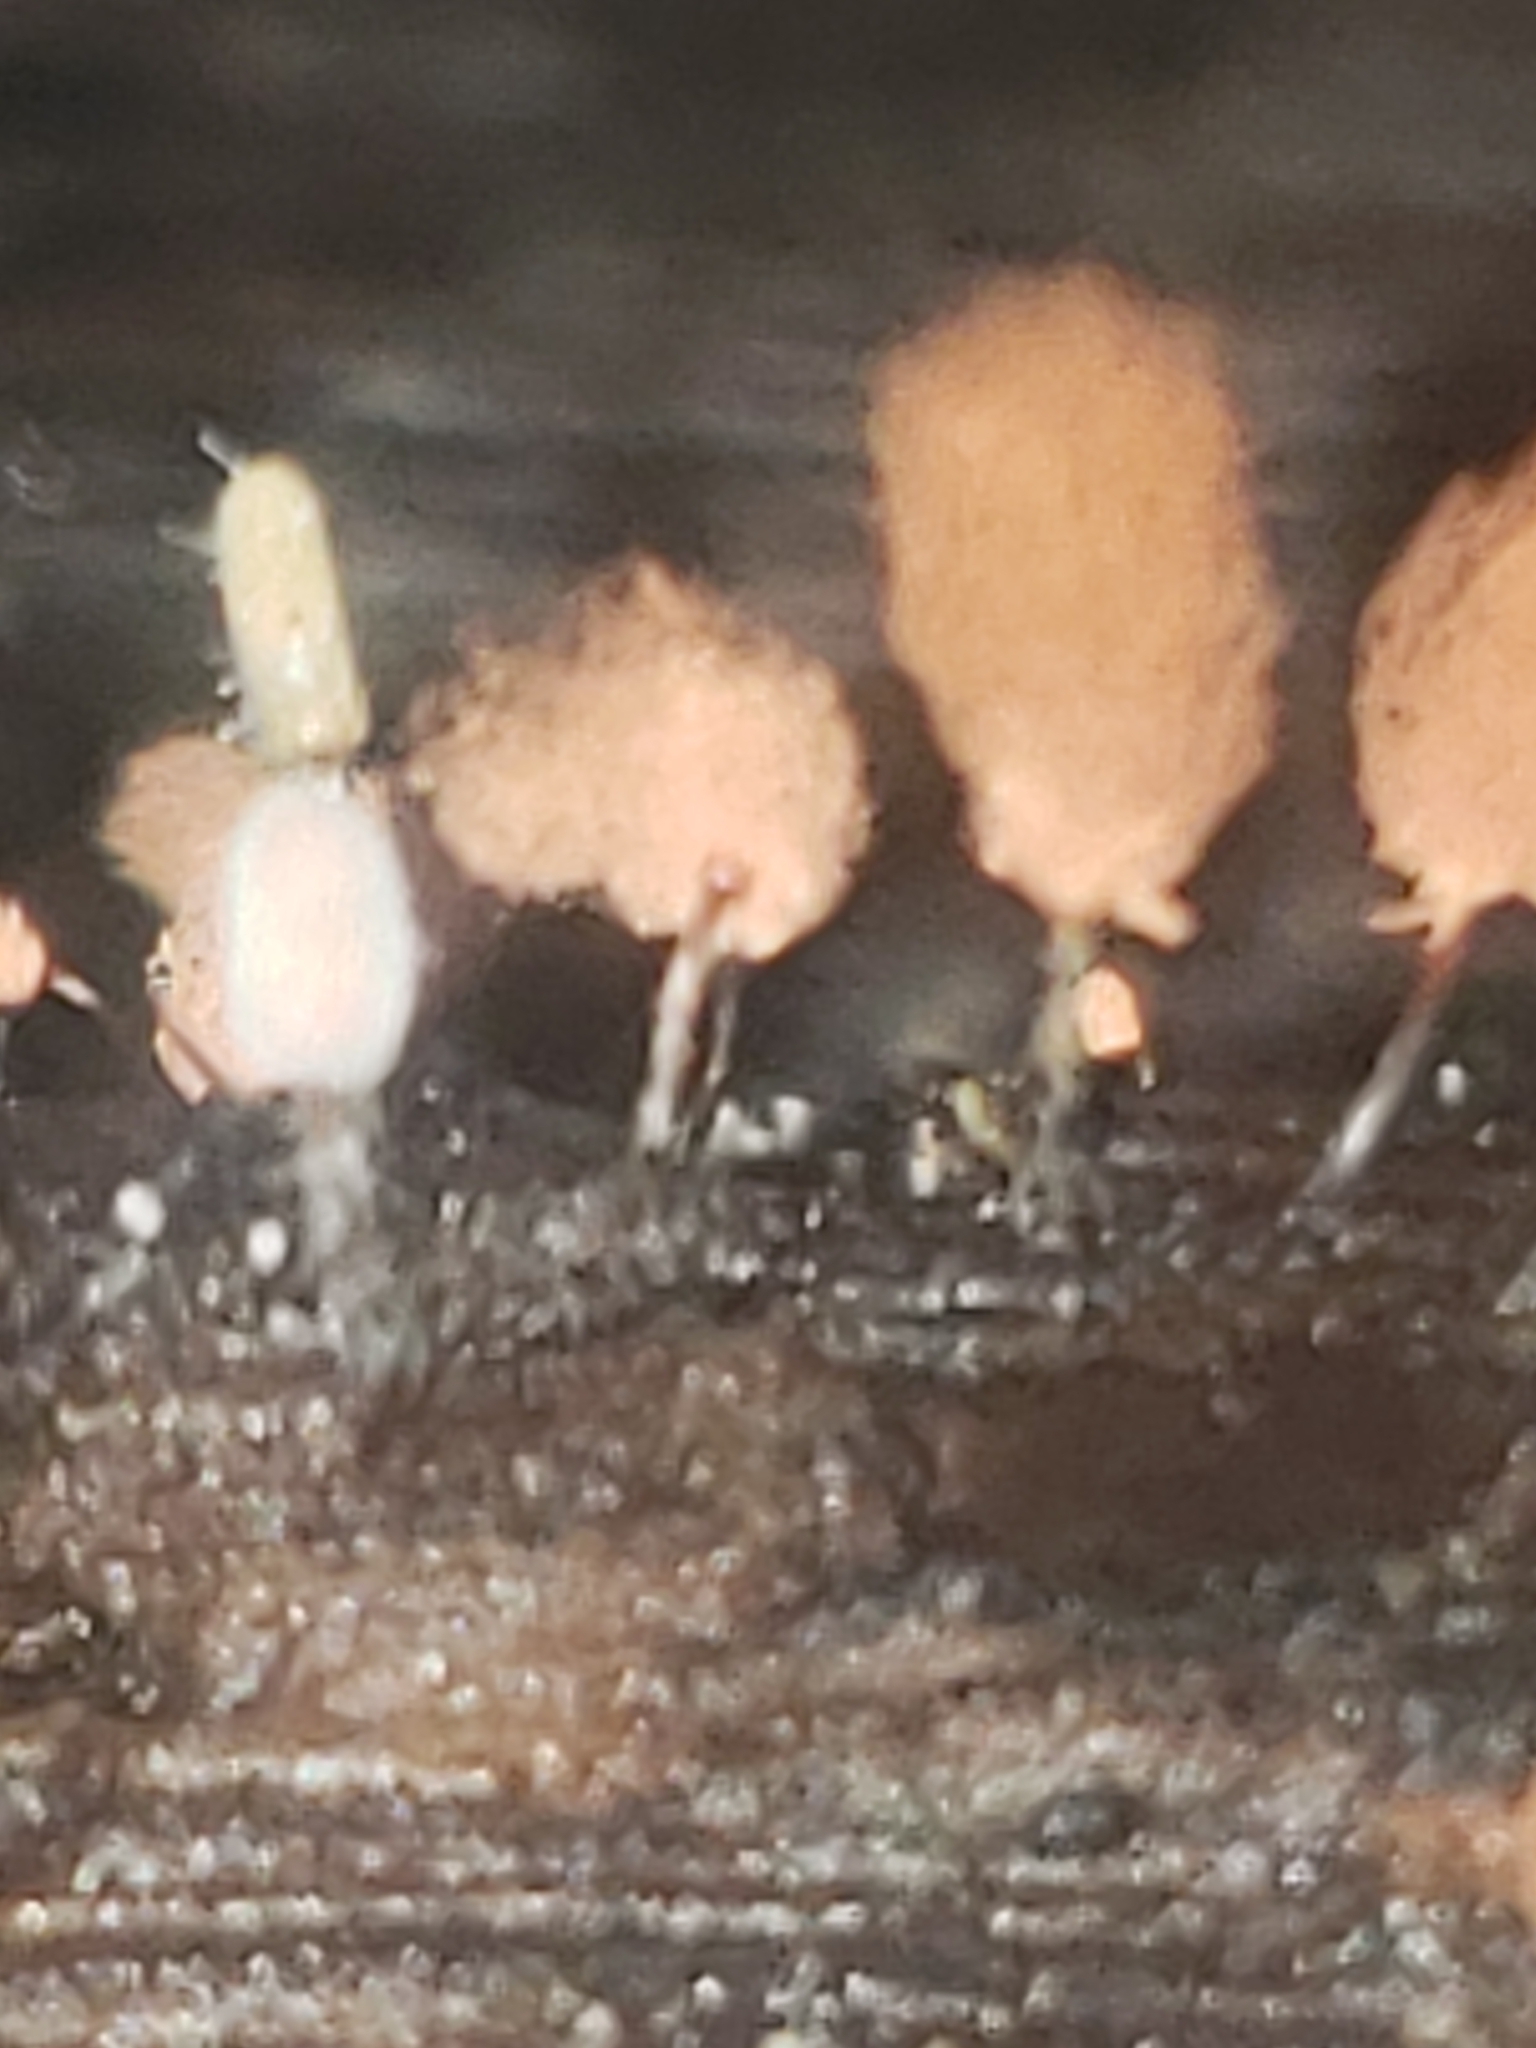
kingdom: Protozoa
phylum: Mycetozoa
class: Myxomycetes
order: Trichiales
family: Arcyriaceae
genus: Arcyria
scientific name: Arcyria denudata
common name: Carnival candy slime mold
